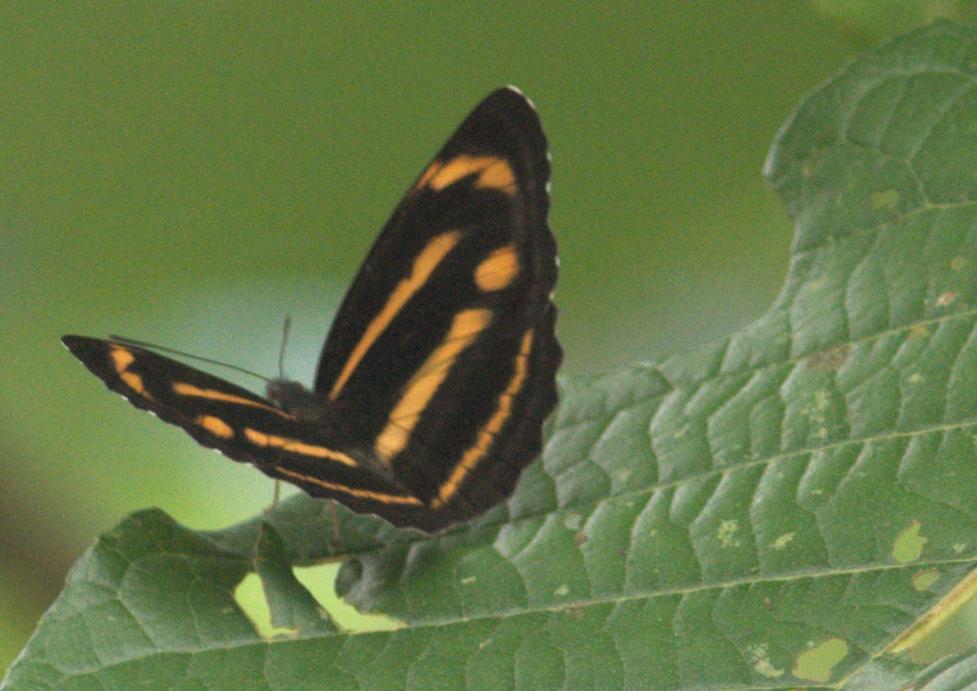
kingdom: Animalia
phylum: Arthropoda
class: Insecta
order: Lepidoptera
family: Nymphalidae
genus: Neptis
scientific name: Neptis ananta
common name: Yellow sailer
